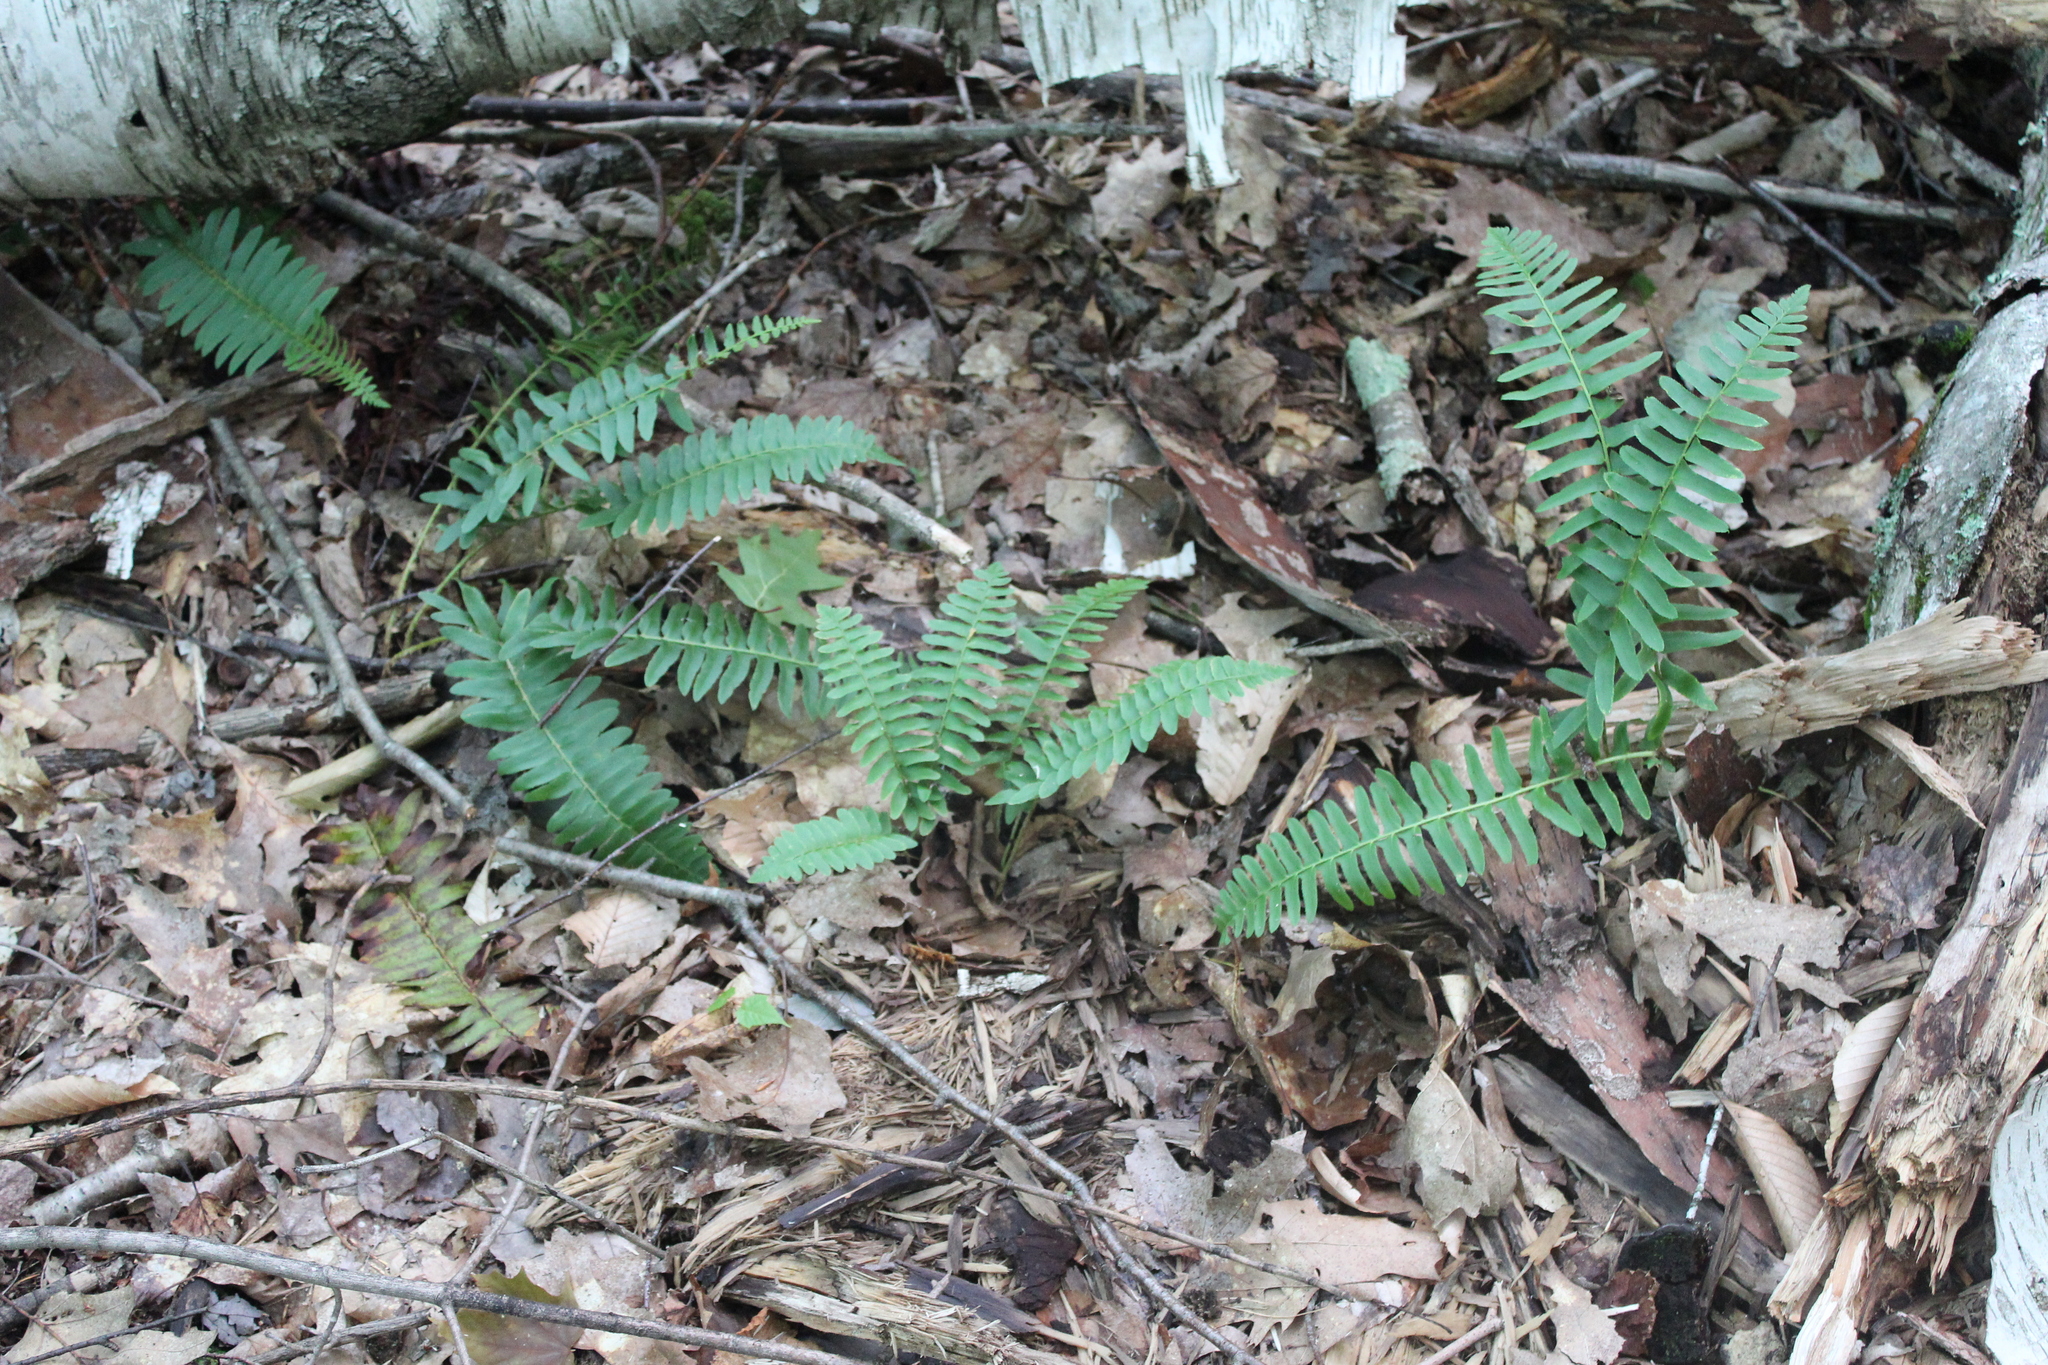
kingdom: Plantae
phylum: Tracheophyta
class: Polypodiopsida
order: Polypodiales
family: Dryopteridaceae
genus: Polystichum
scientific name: Polystichum acrostichoides
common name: Christmas fern
